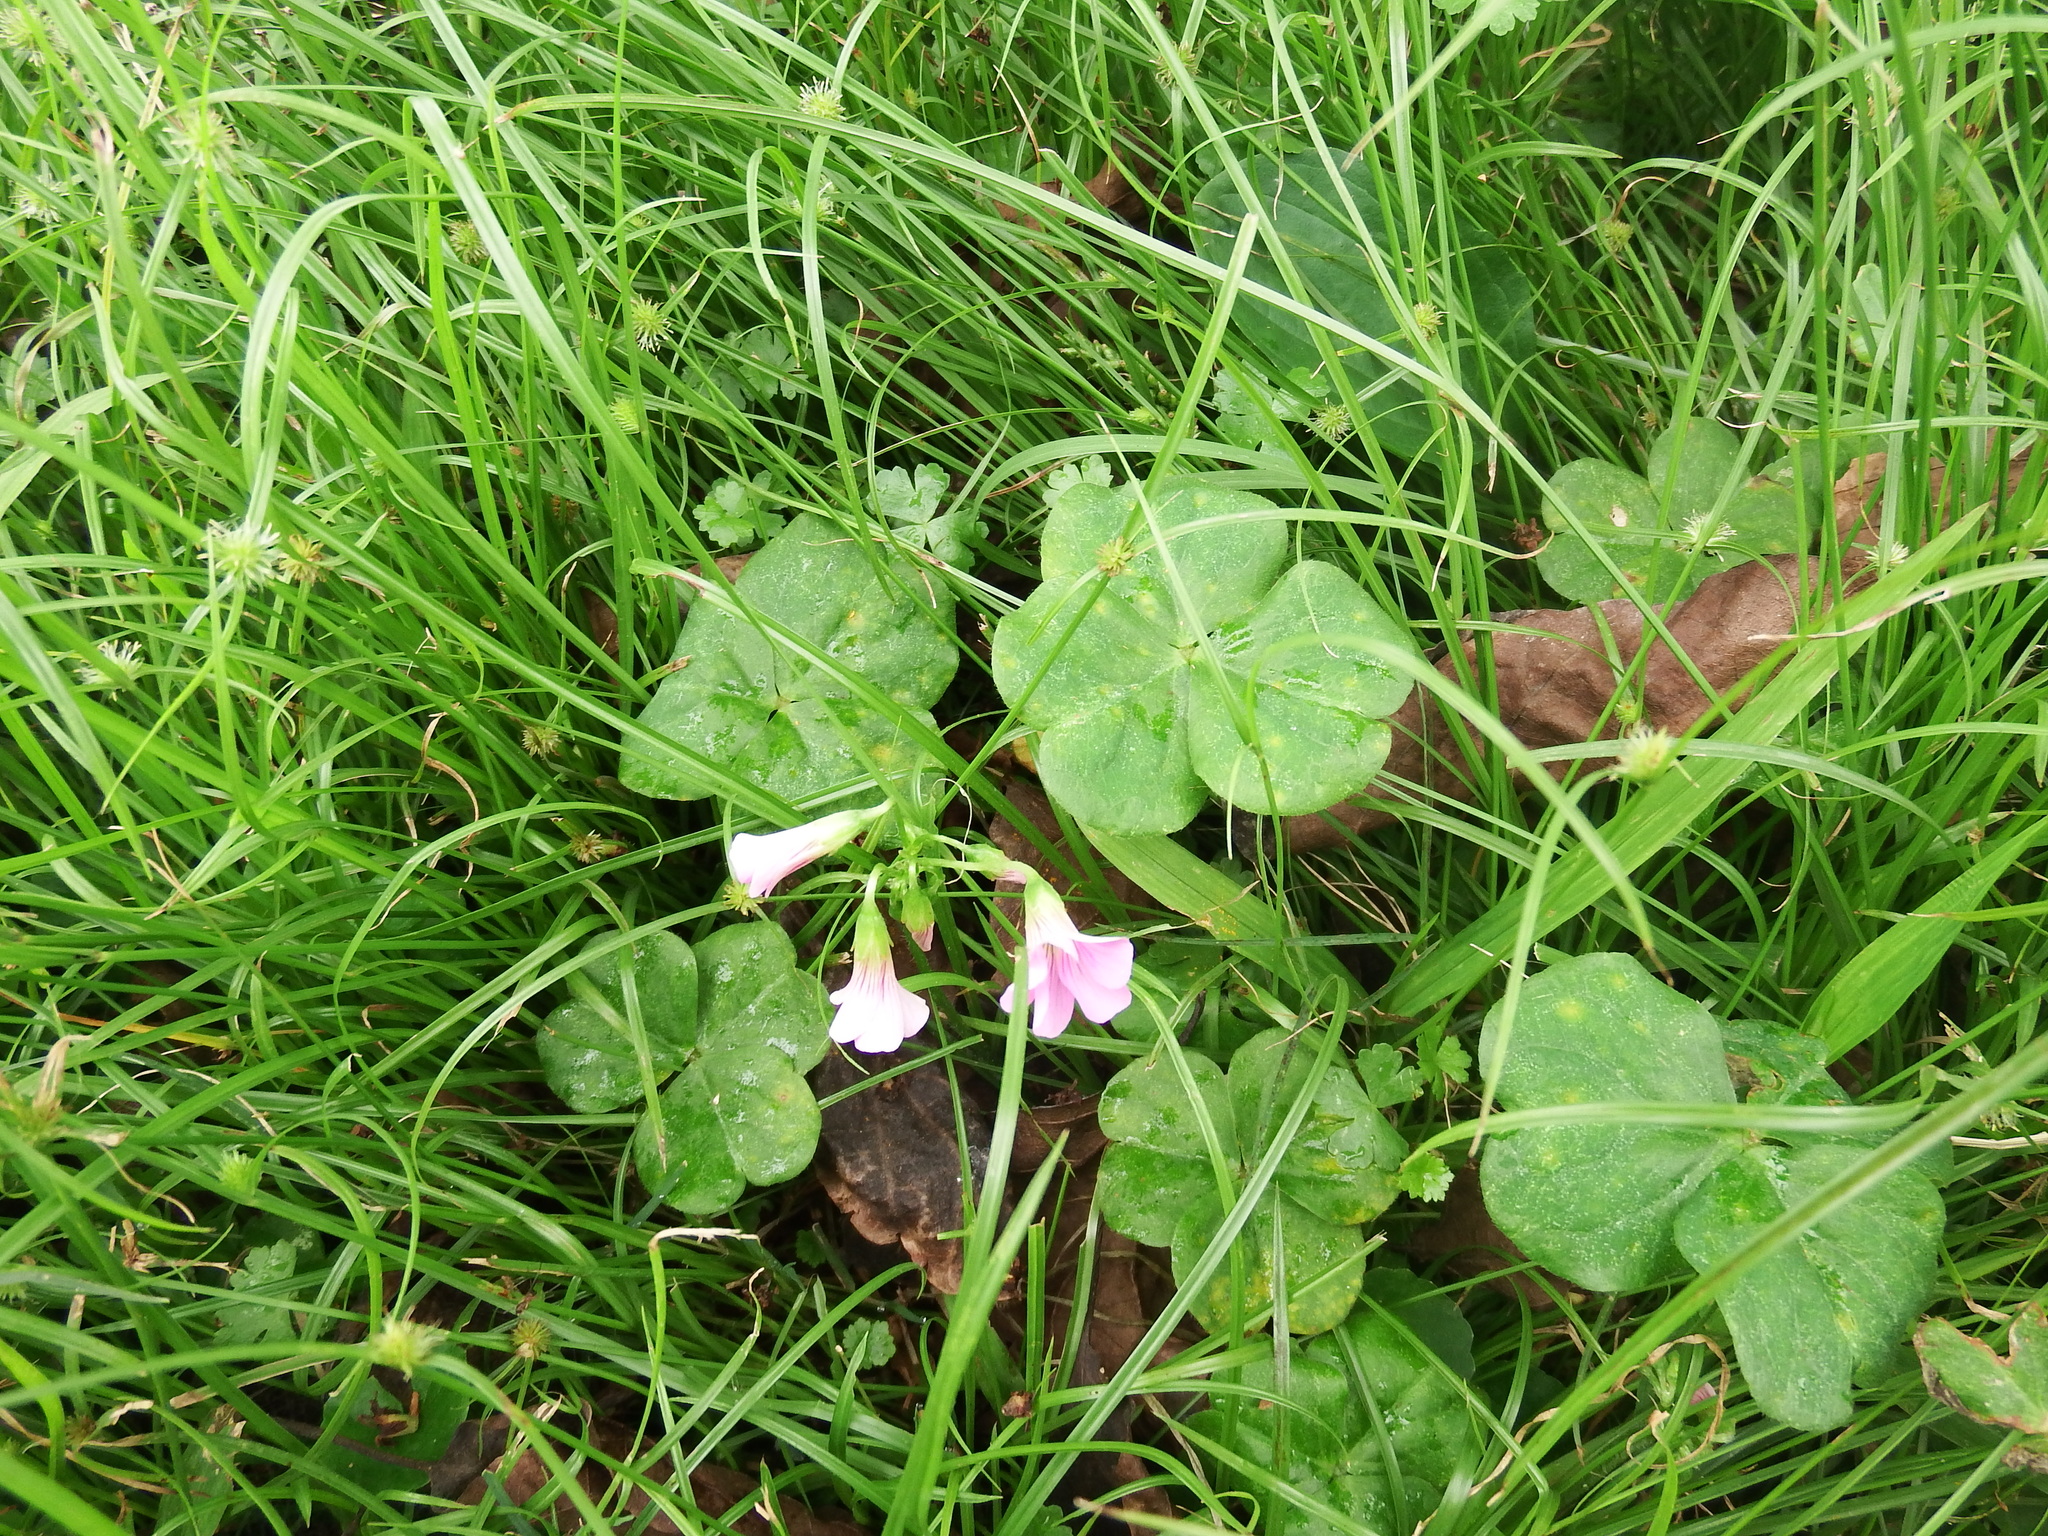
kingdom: Plantae
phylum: Tracheophyta
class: Magnoliopsida
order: Oxalidales
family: Oxalidaceae
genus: Oxalis
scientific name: Oxalis debilis
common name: Large-flowered pink-sorrel
